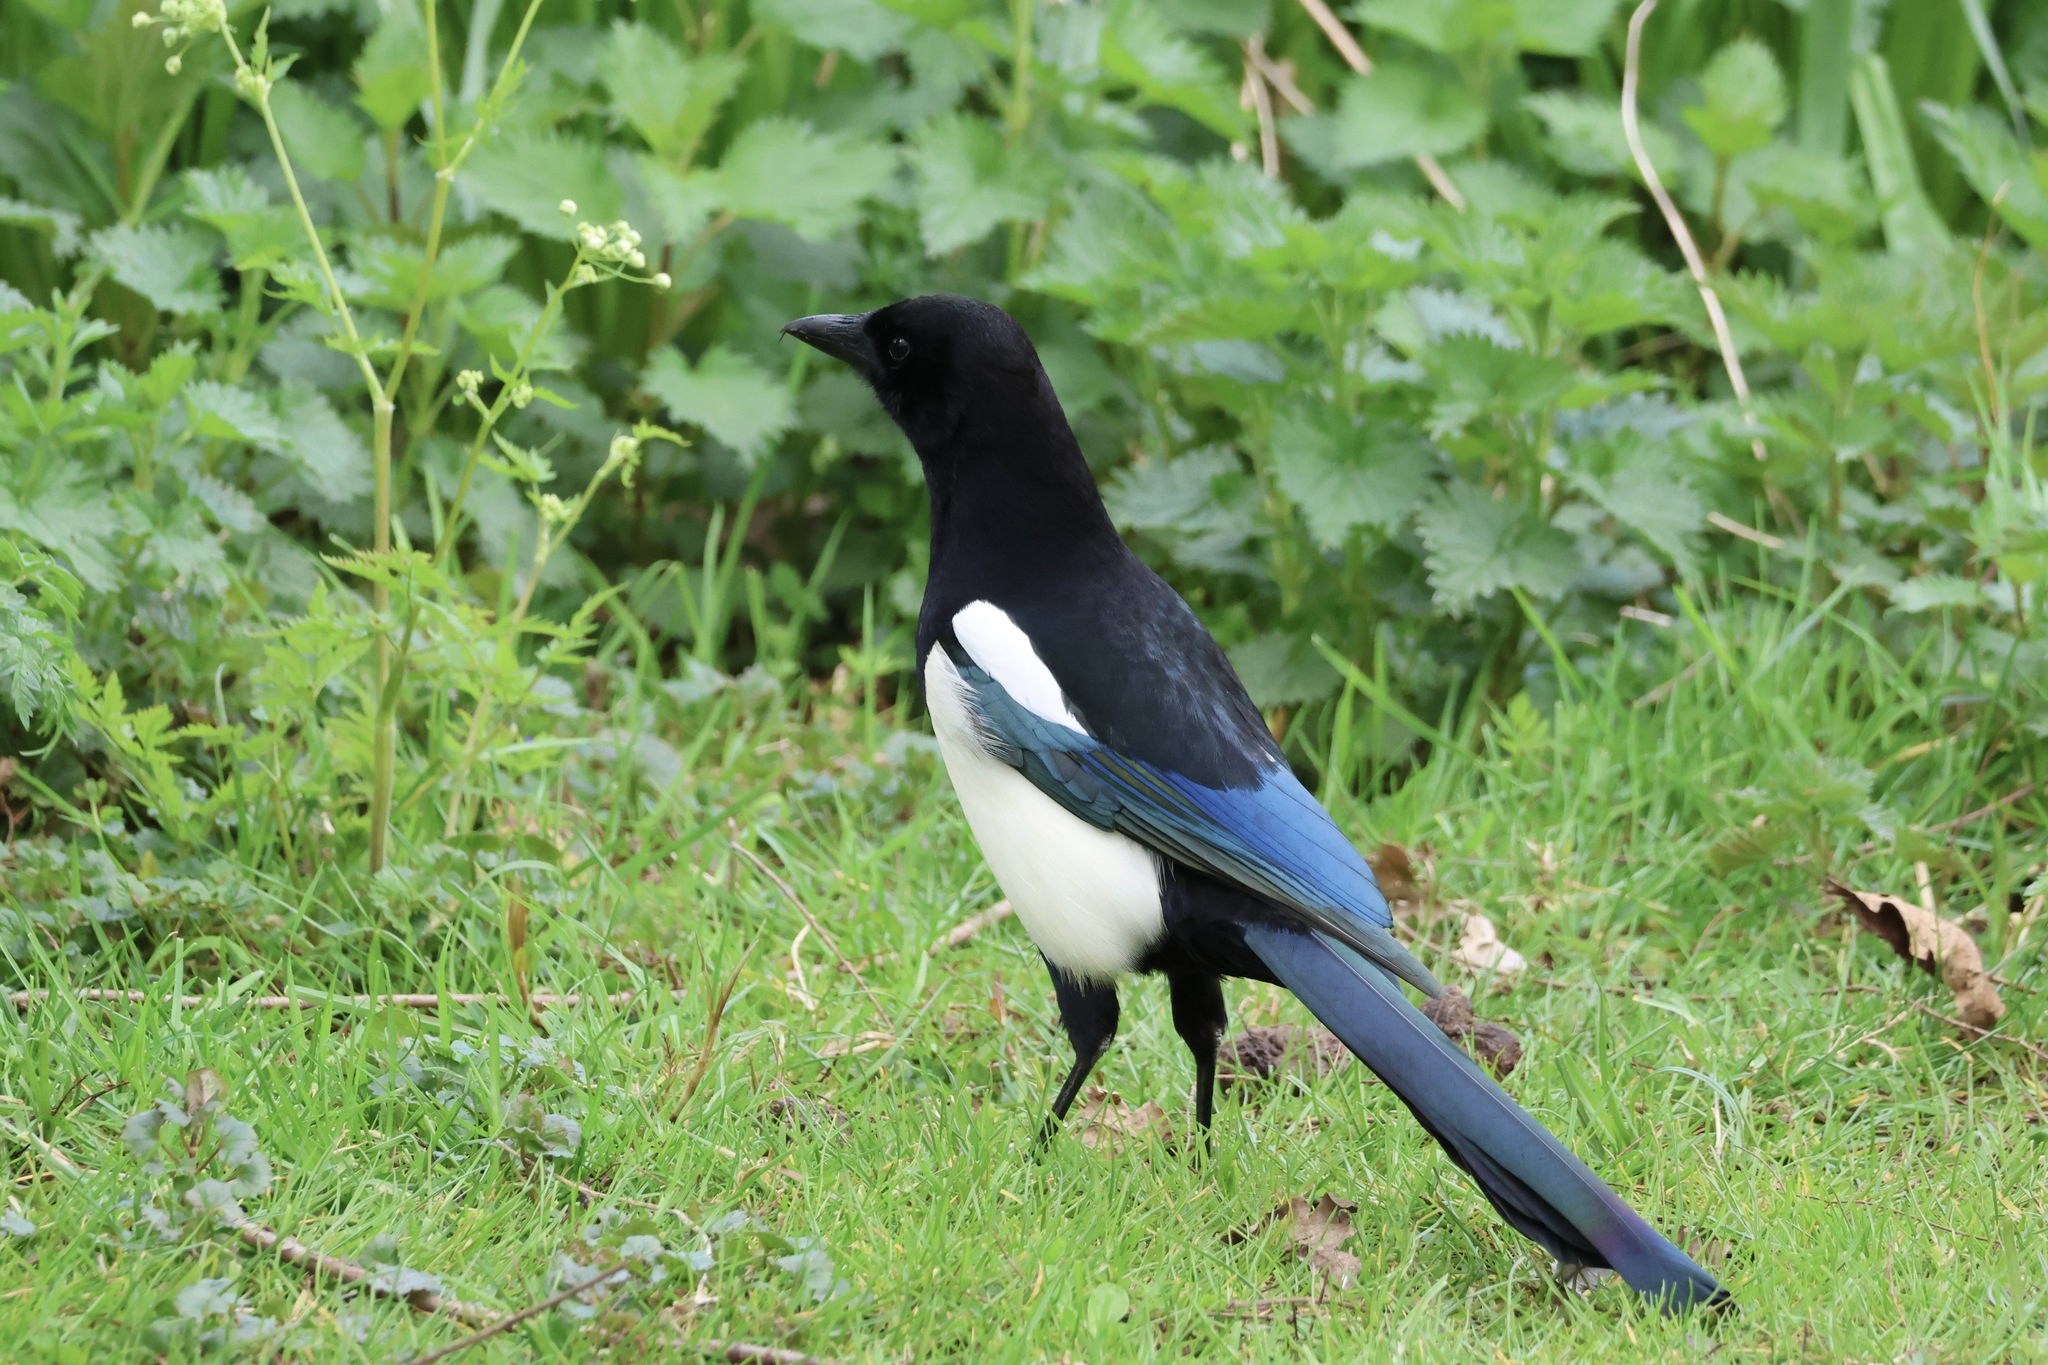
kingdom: Animalia
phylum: Chordata
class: Aves
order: Passeriformes
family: Corvidae
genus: Pica
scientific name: Pica pica
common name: Eurasian magpie
